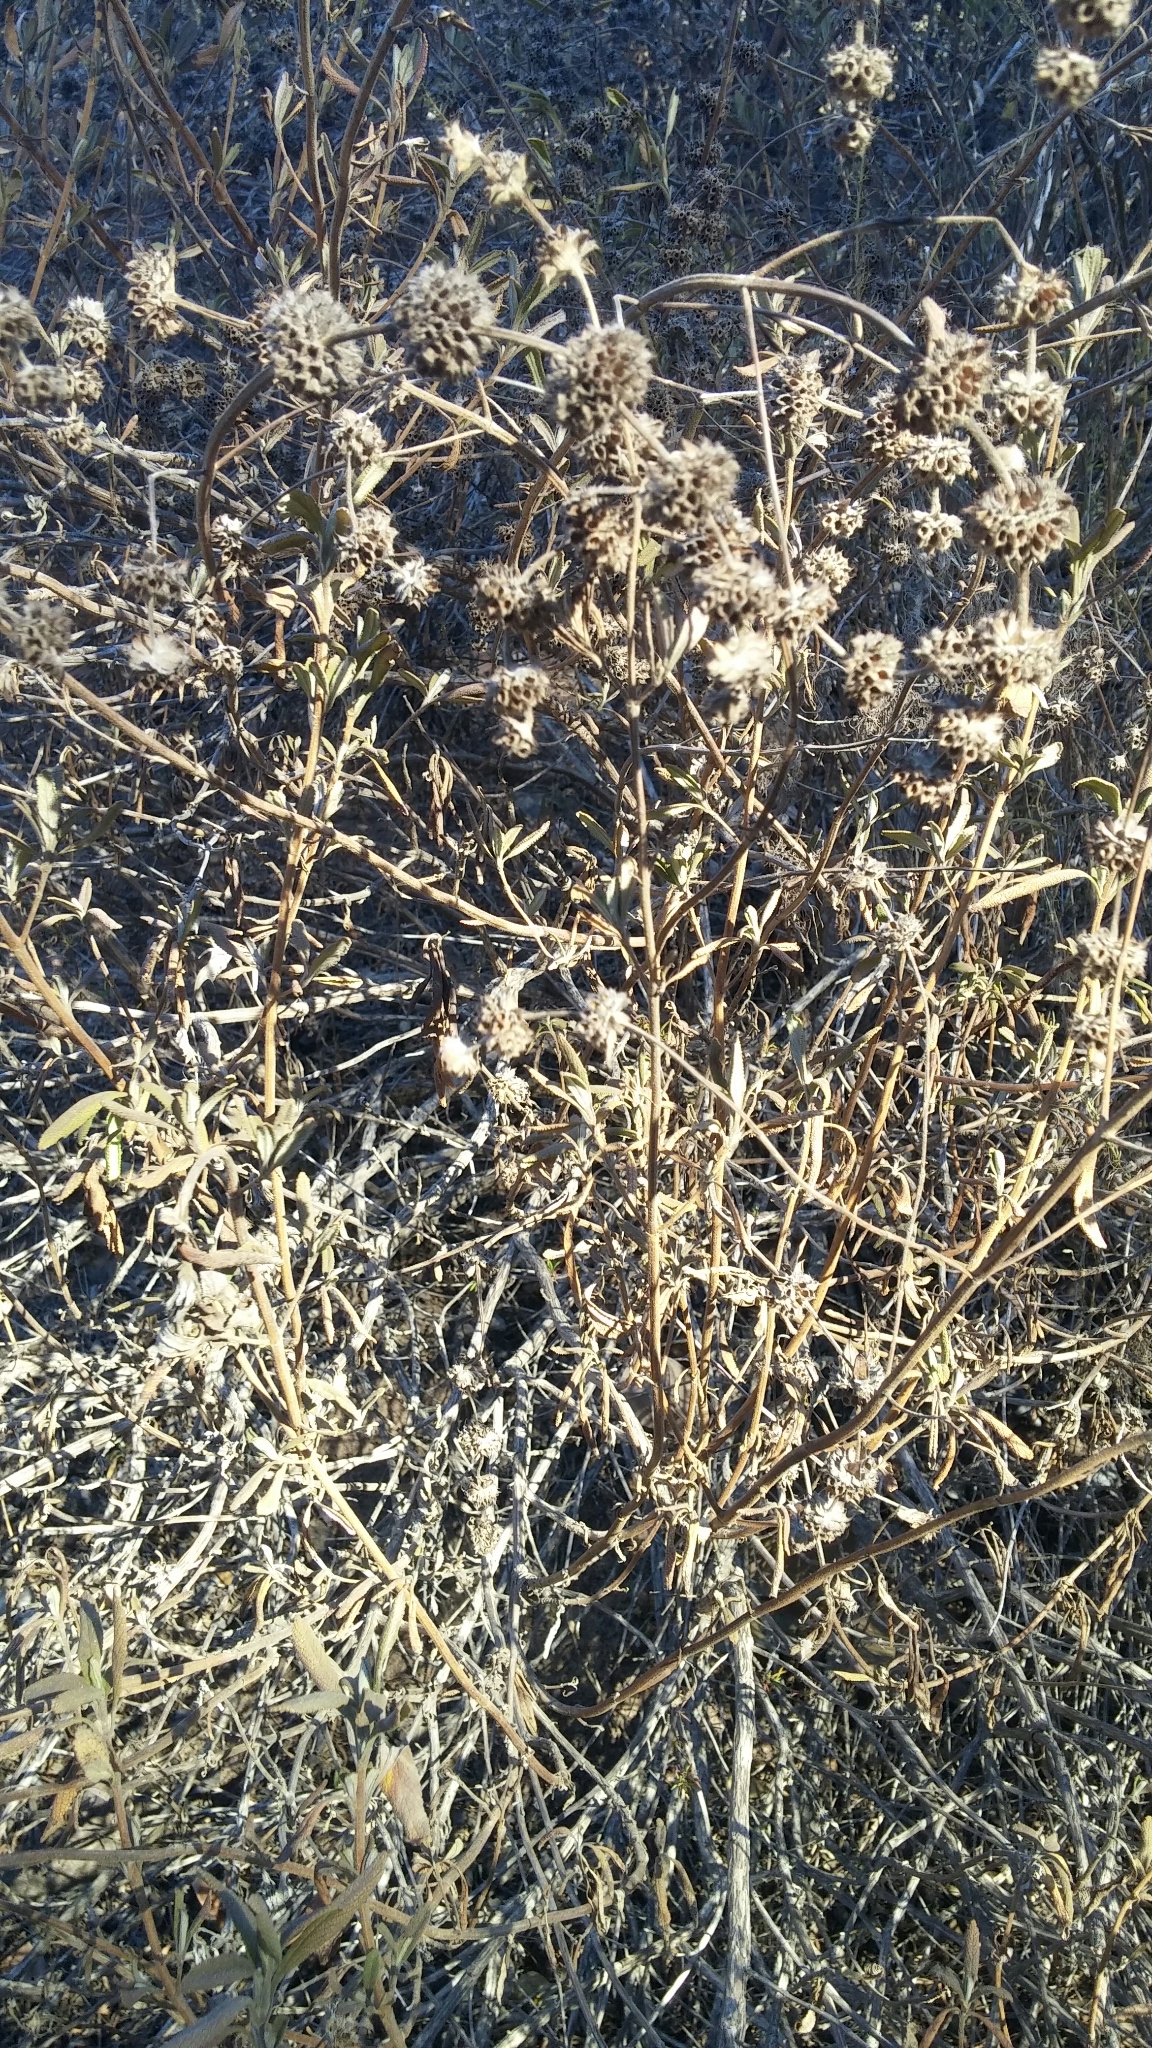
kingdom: Plantae
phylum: Tracheophyta
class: Magnoliopsida
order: Lamiales
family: Lamiaceae
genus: Salvia
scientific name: Salvia mellifera
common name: Black sage
